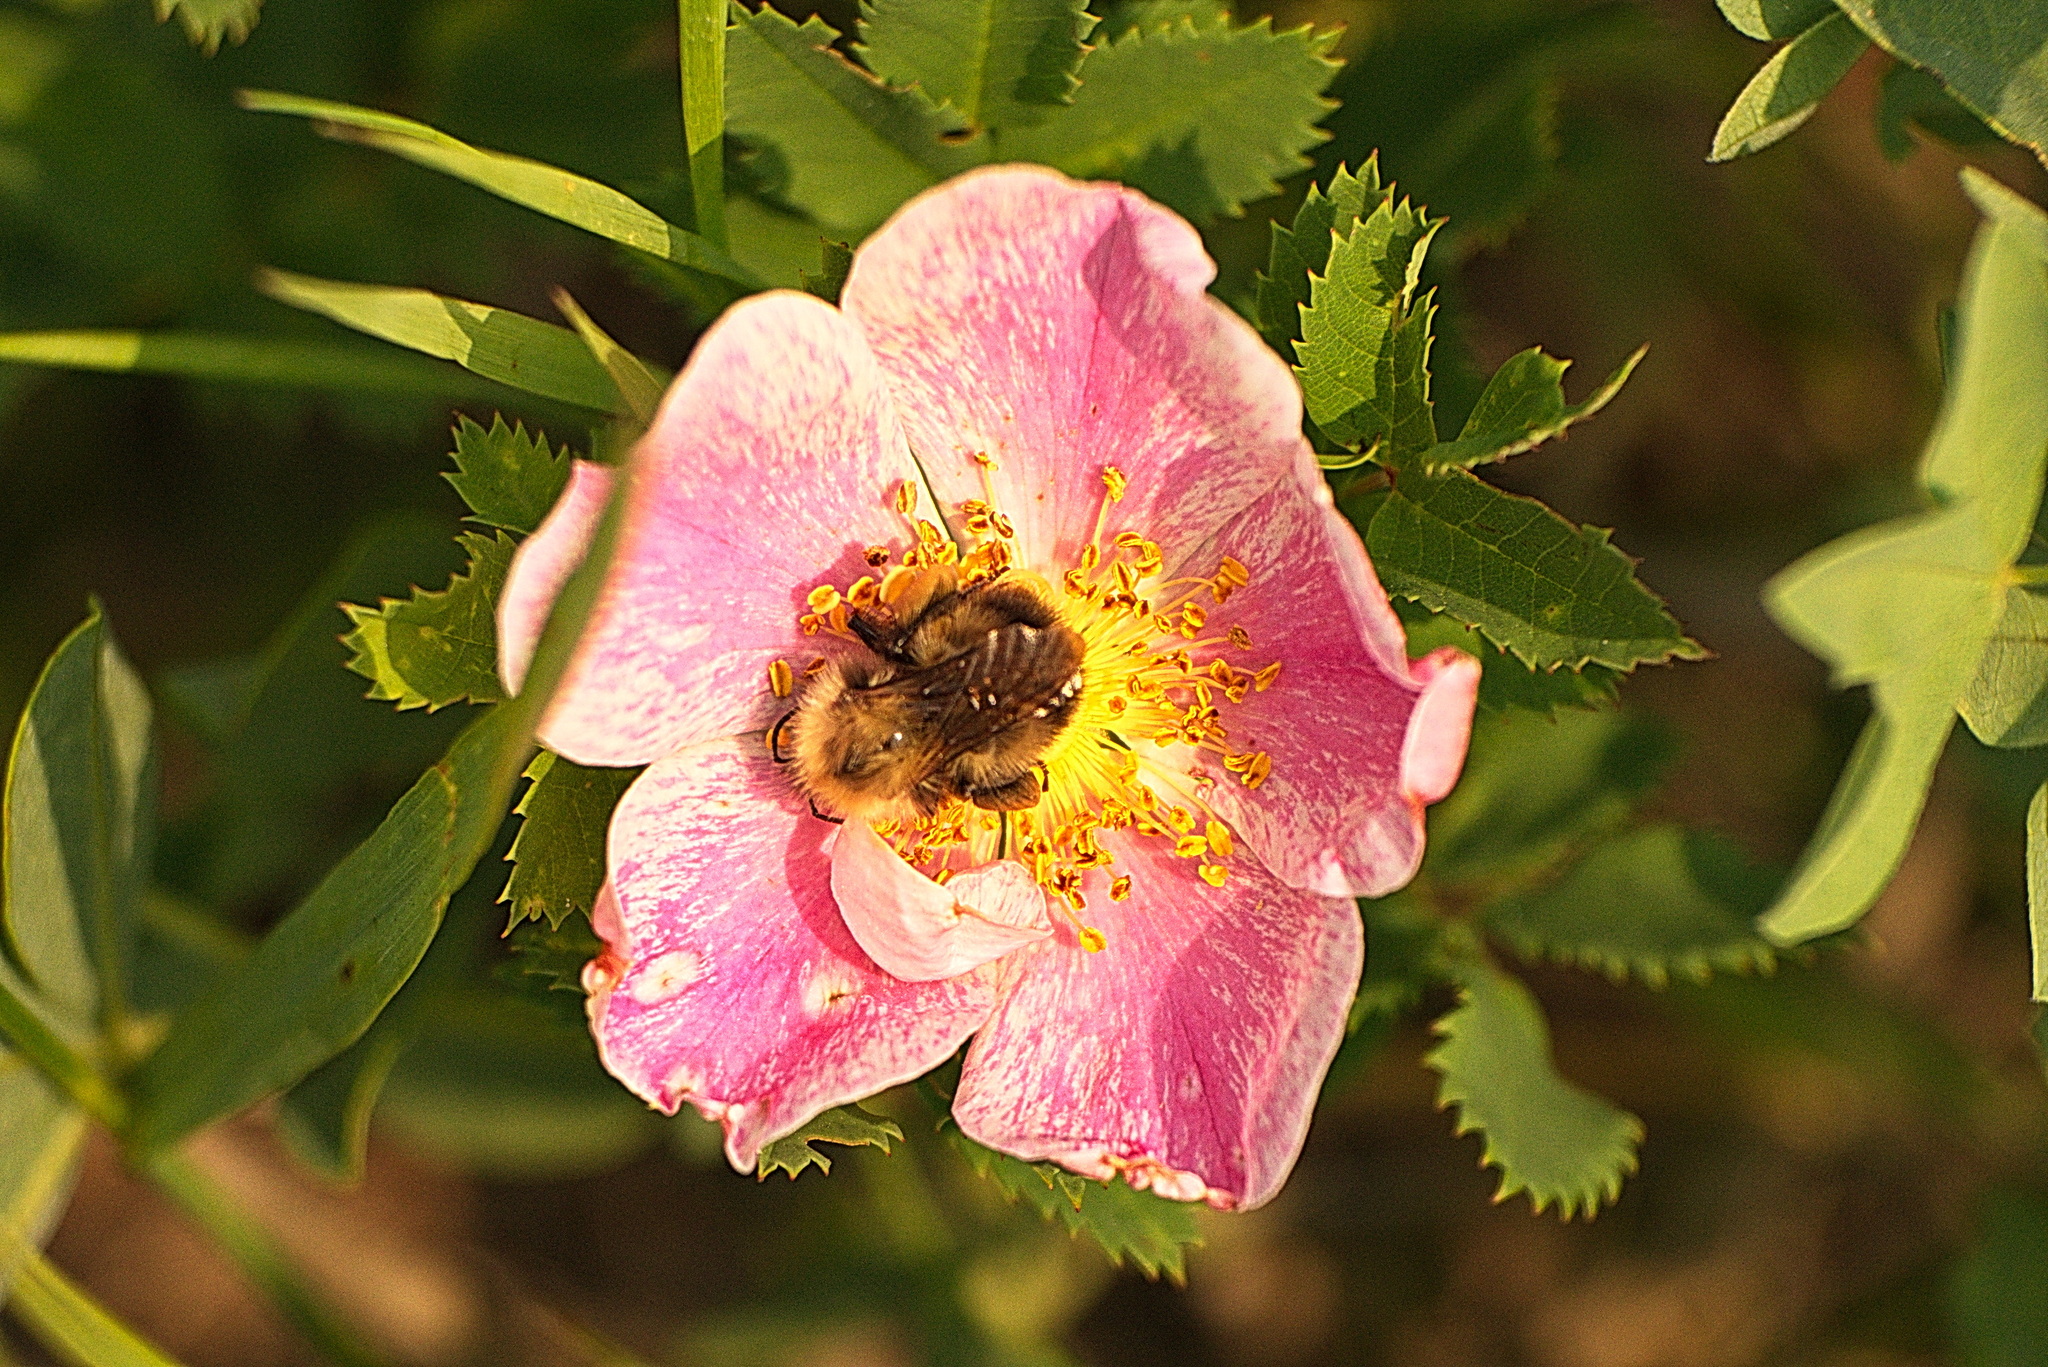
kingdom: Animalia
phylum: Arthropoda
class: Insecta
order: Hymenoptera
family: Apidae
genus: Bombus
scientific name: Bombus perplexus
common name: Confusing bumble bee
